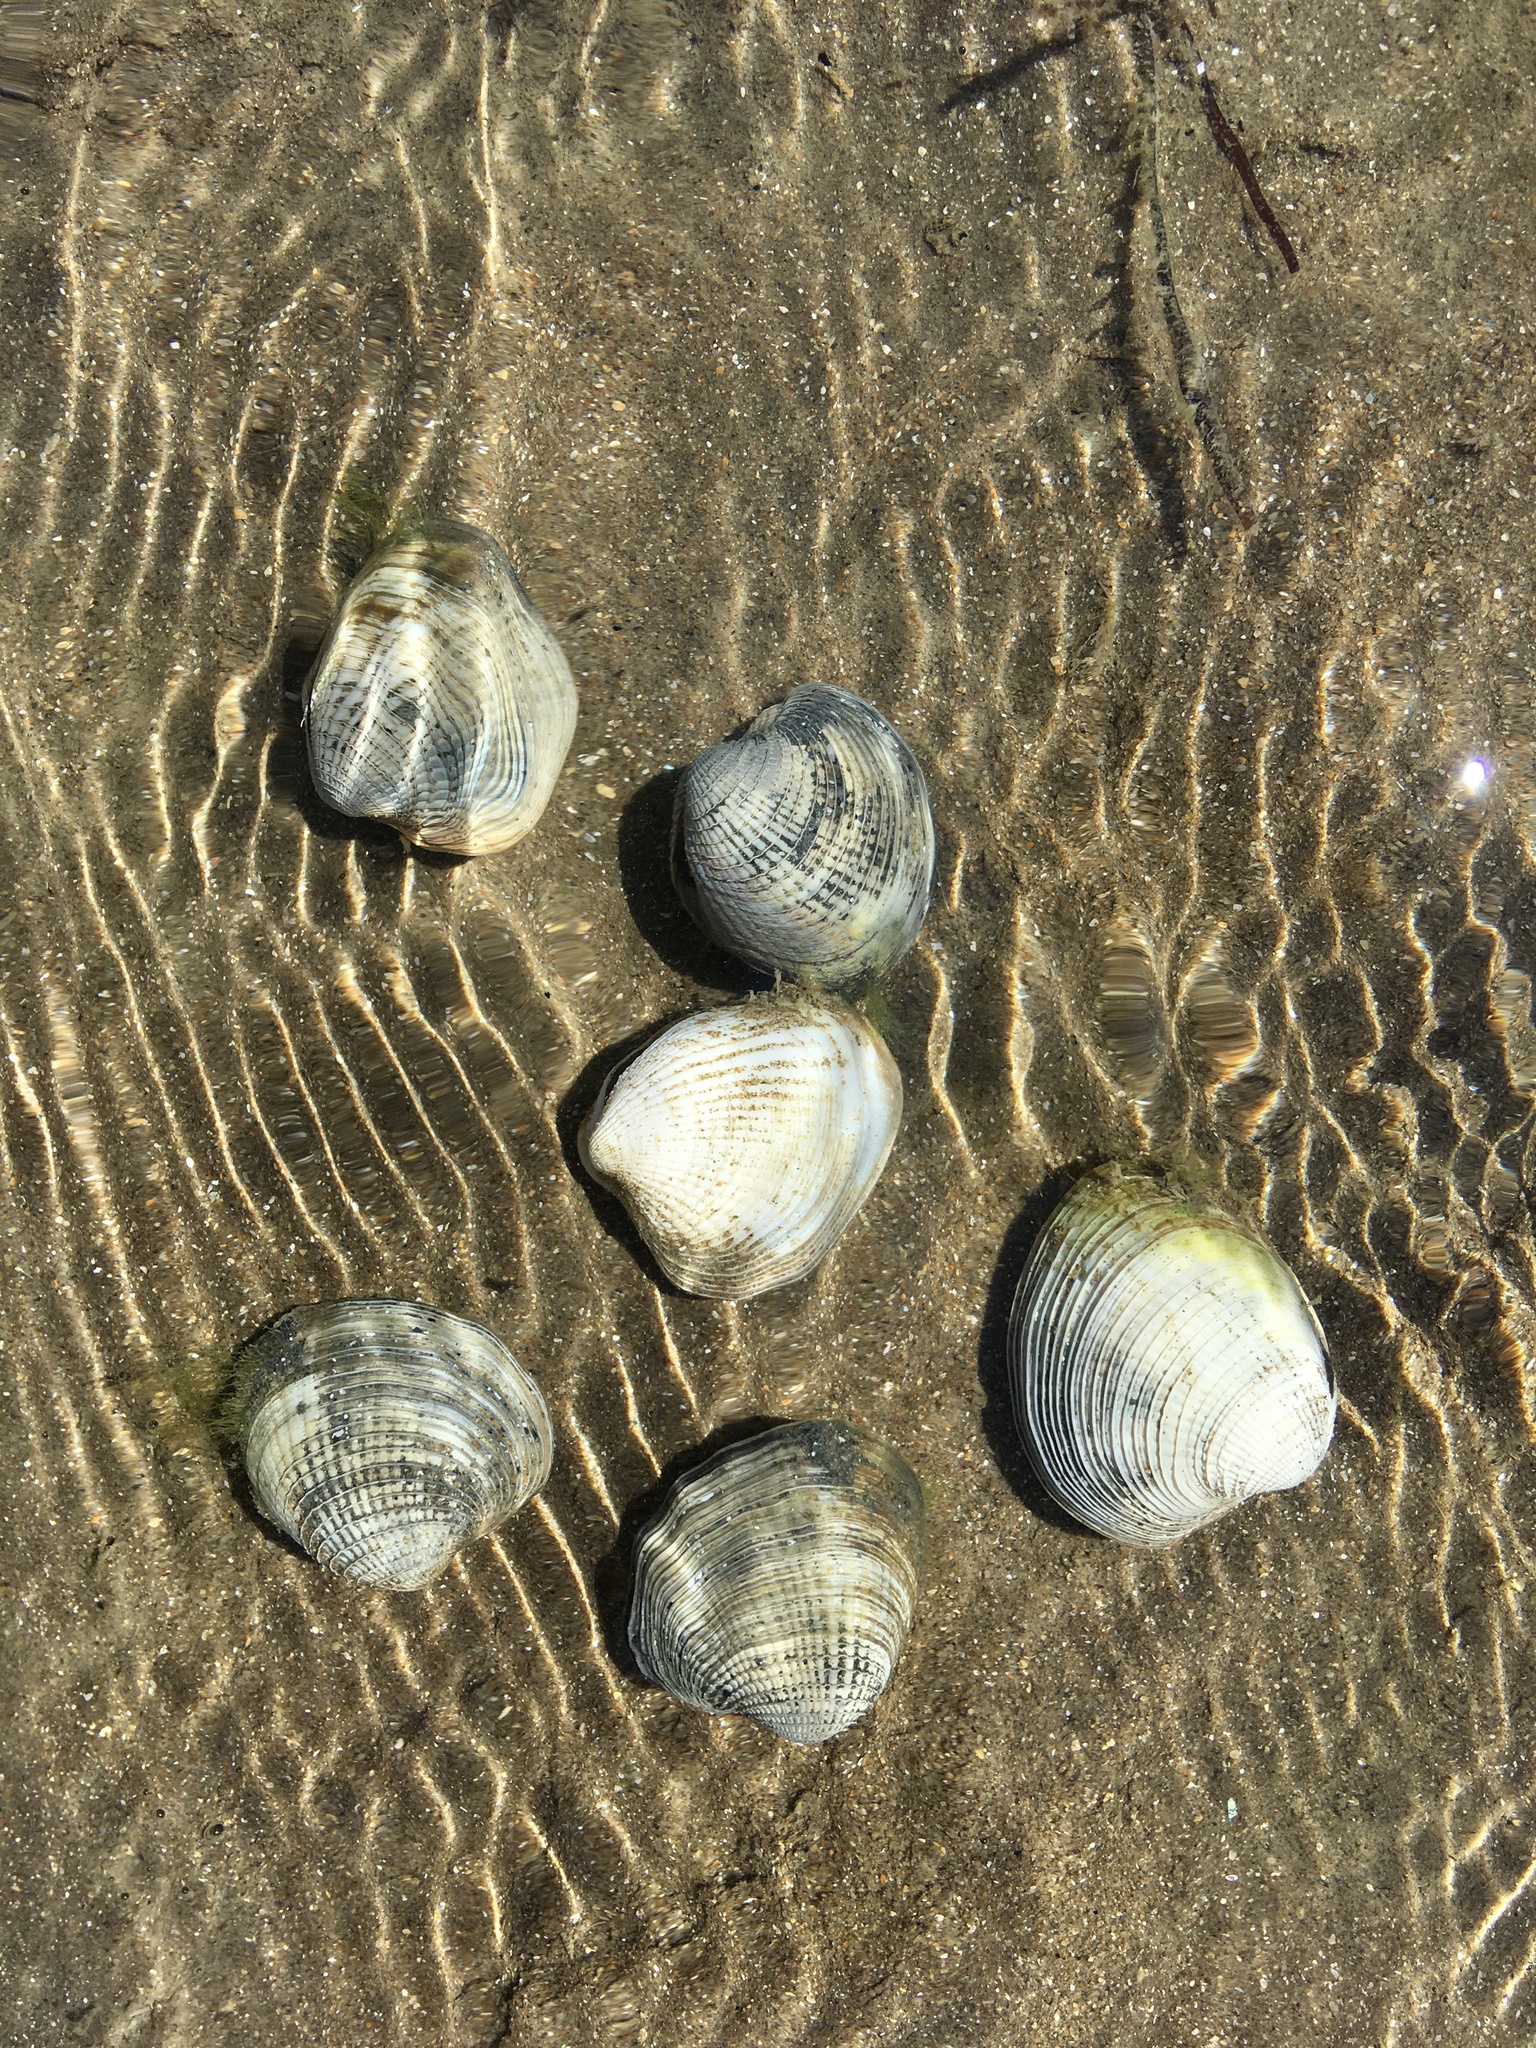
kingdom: Animalia
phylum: Mollusca
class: Bivalvia
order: Venerida
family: Veneridae
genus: Austrovenus
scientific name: Austrovenus stutchburyi
